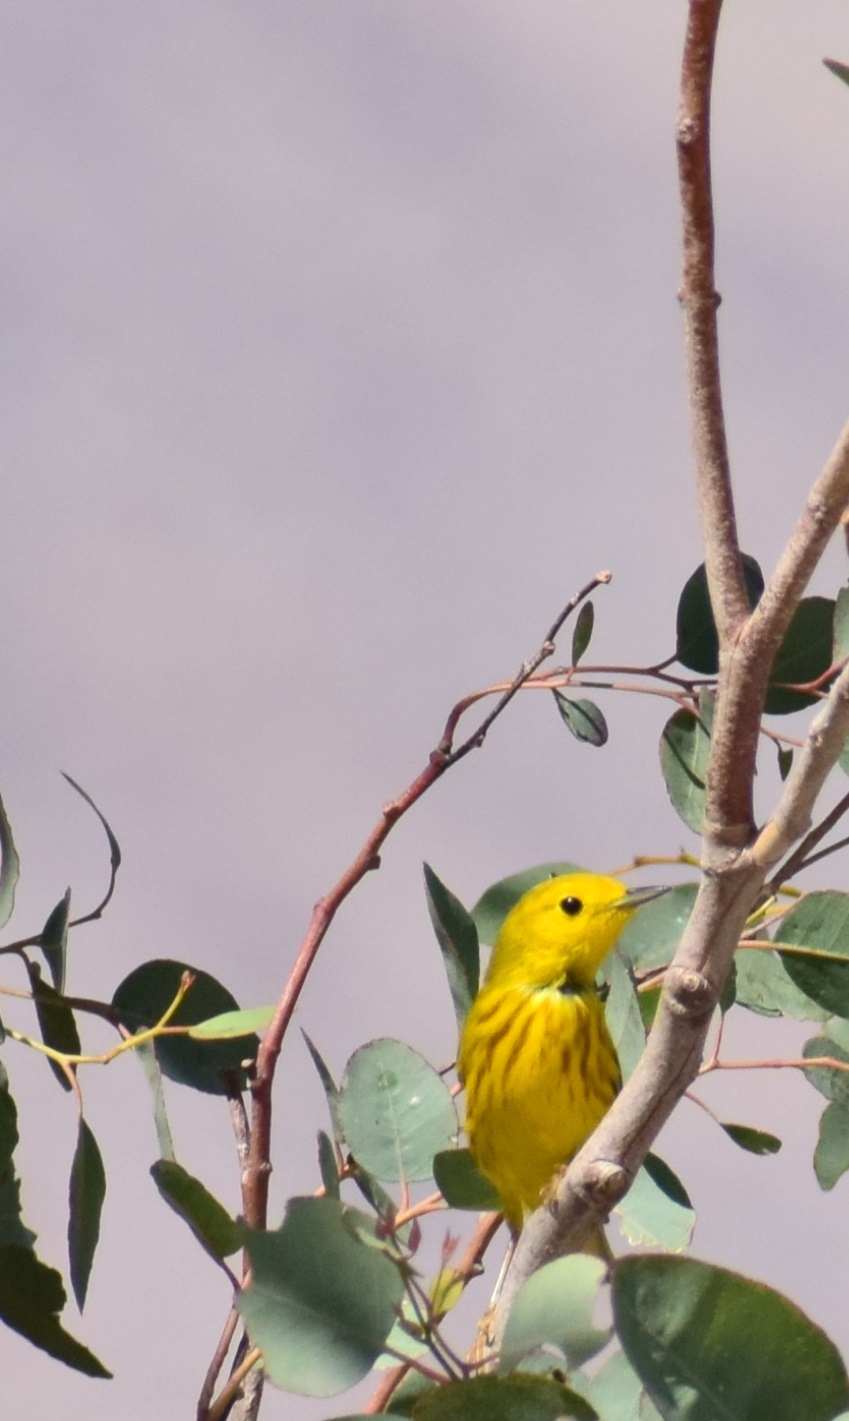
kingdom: Animalia
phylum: Chordata
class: Aves
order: Passeriformes
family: Parulidae
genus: Setophaga
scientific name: Setophaga petechia
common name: Yellow warbler
